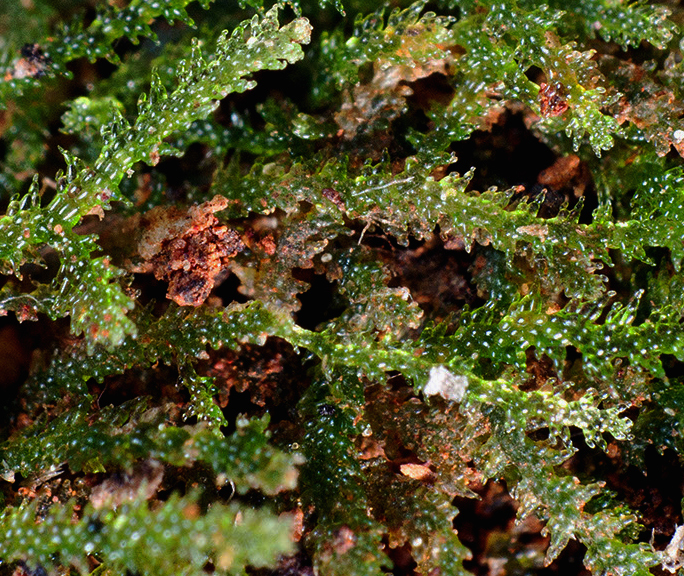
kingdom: Plantae
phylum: Marchantiophyta
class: Jungermanniopsida
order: Jungermanniales
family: Lepidoziaceae
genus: Zoopsis
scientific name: Zoopsis leitgebiana
